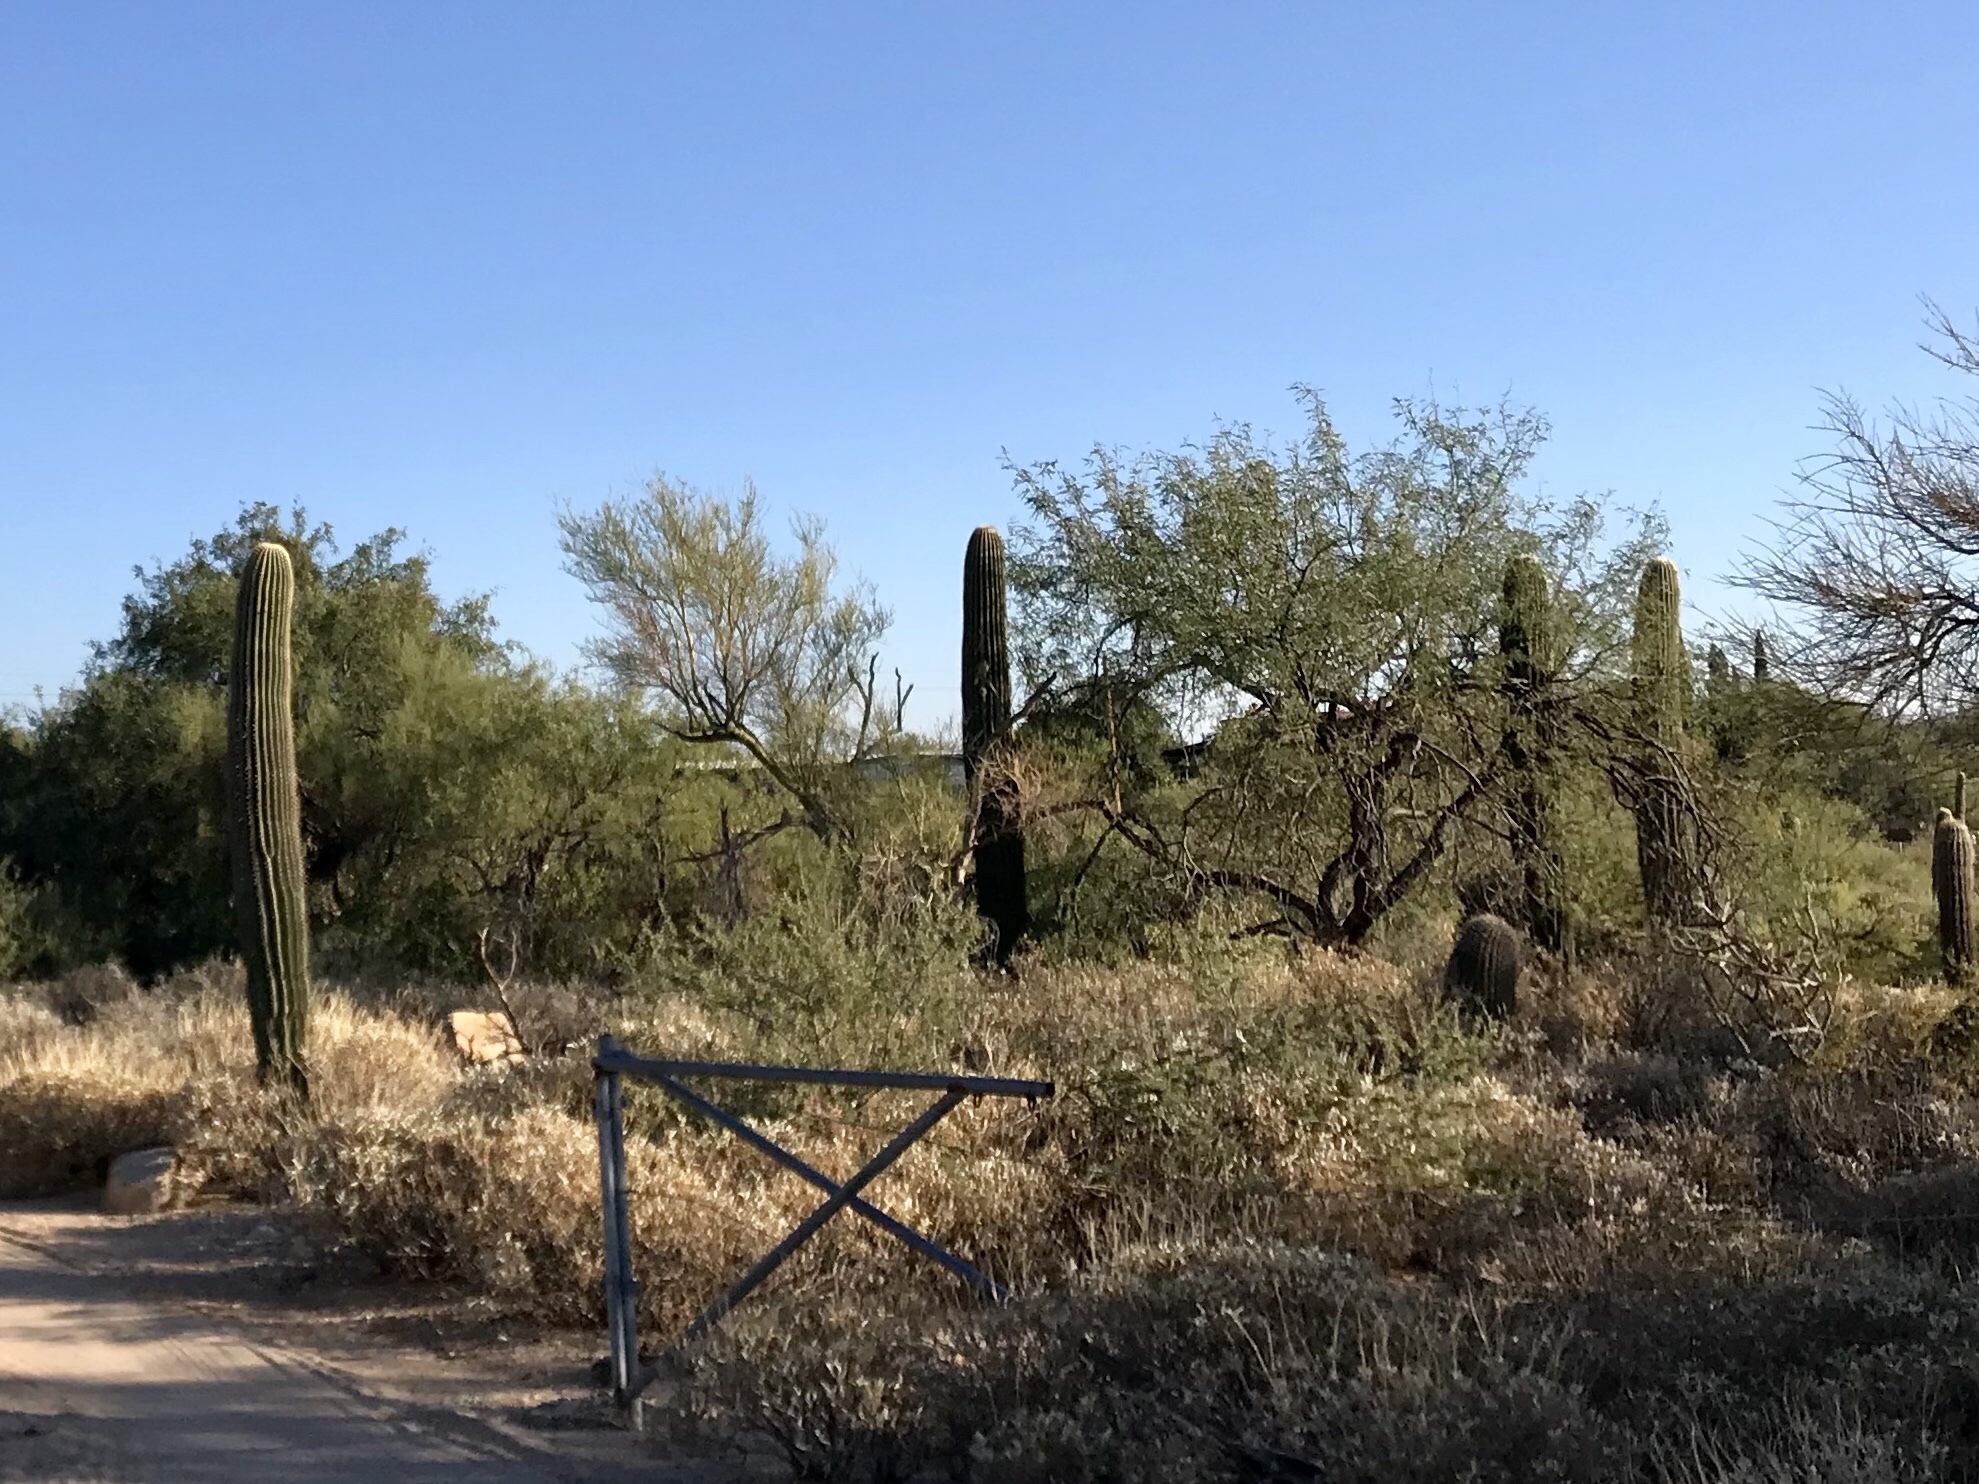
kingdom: Plantae
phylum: Tracheophyta
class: Magnoliopsida
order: Caryophyllales
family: Cactaceae
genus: Carnegiea
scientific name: Carnegiea gigantea
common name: Saguaro
